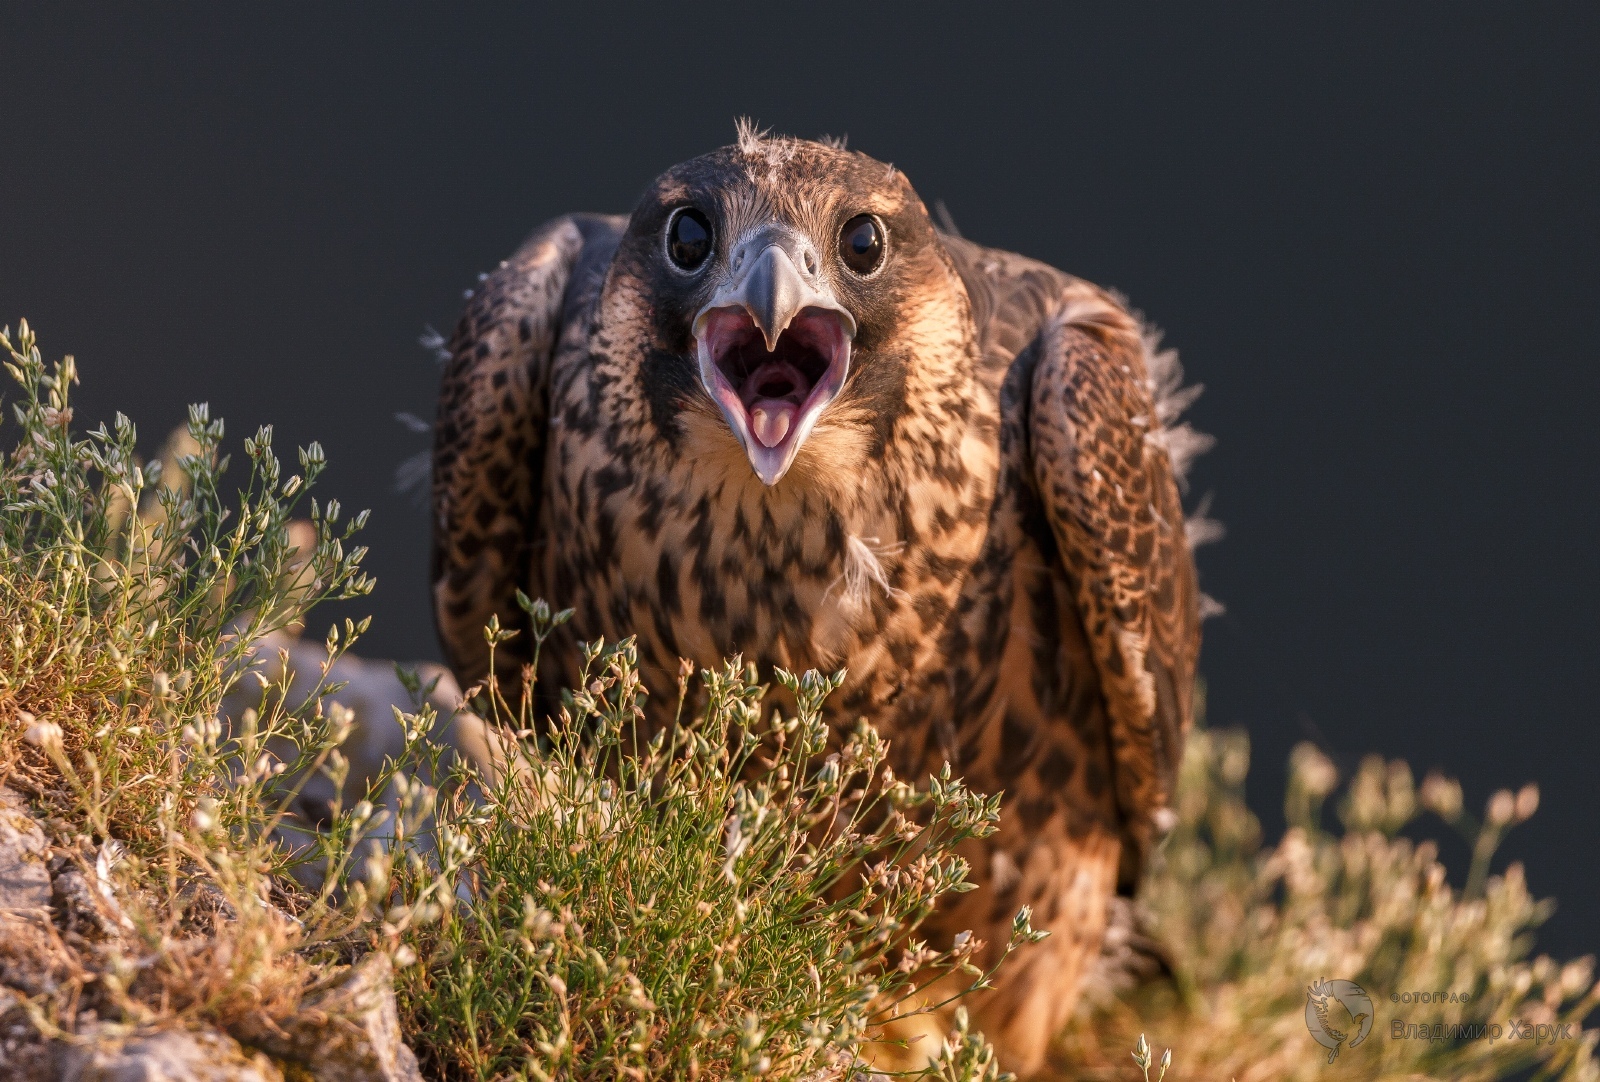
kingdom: Animalia
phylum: Chordata
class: Aves
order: Falconiformes
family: Falconidae
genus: Falco
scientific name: Falco peregrinus
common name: Peregrine falcon
